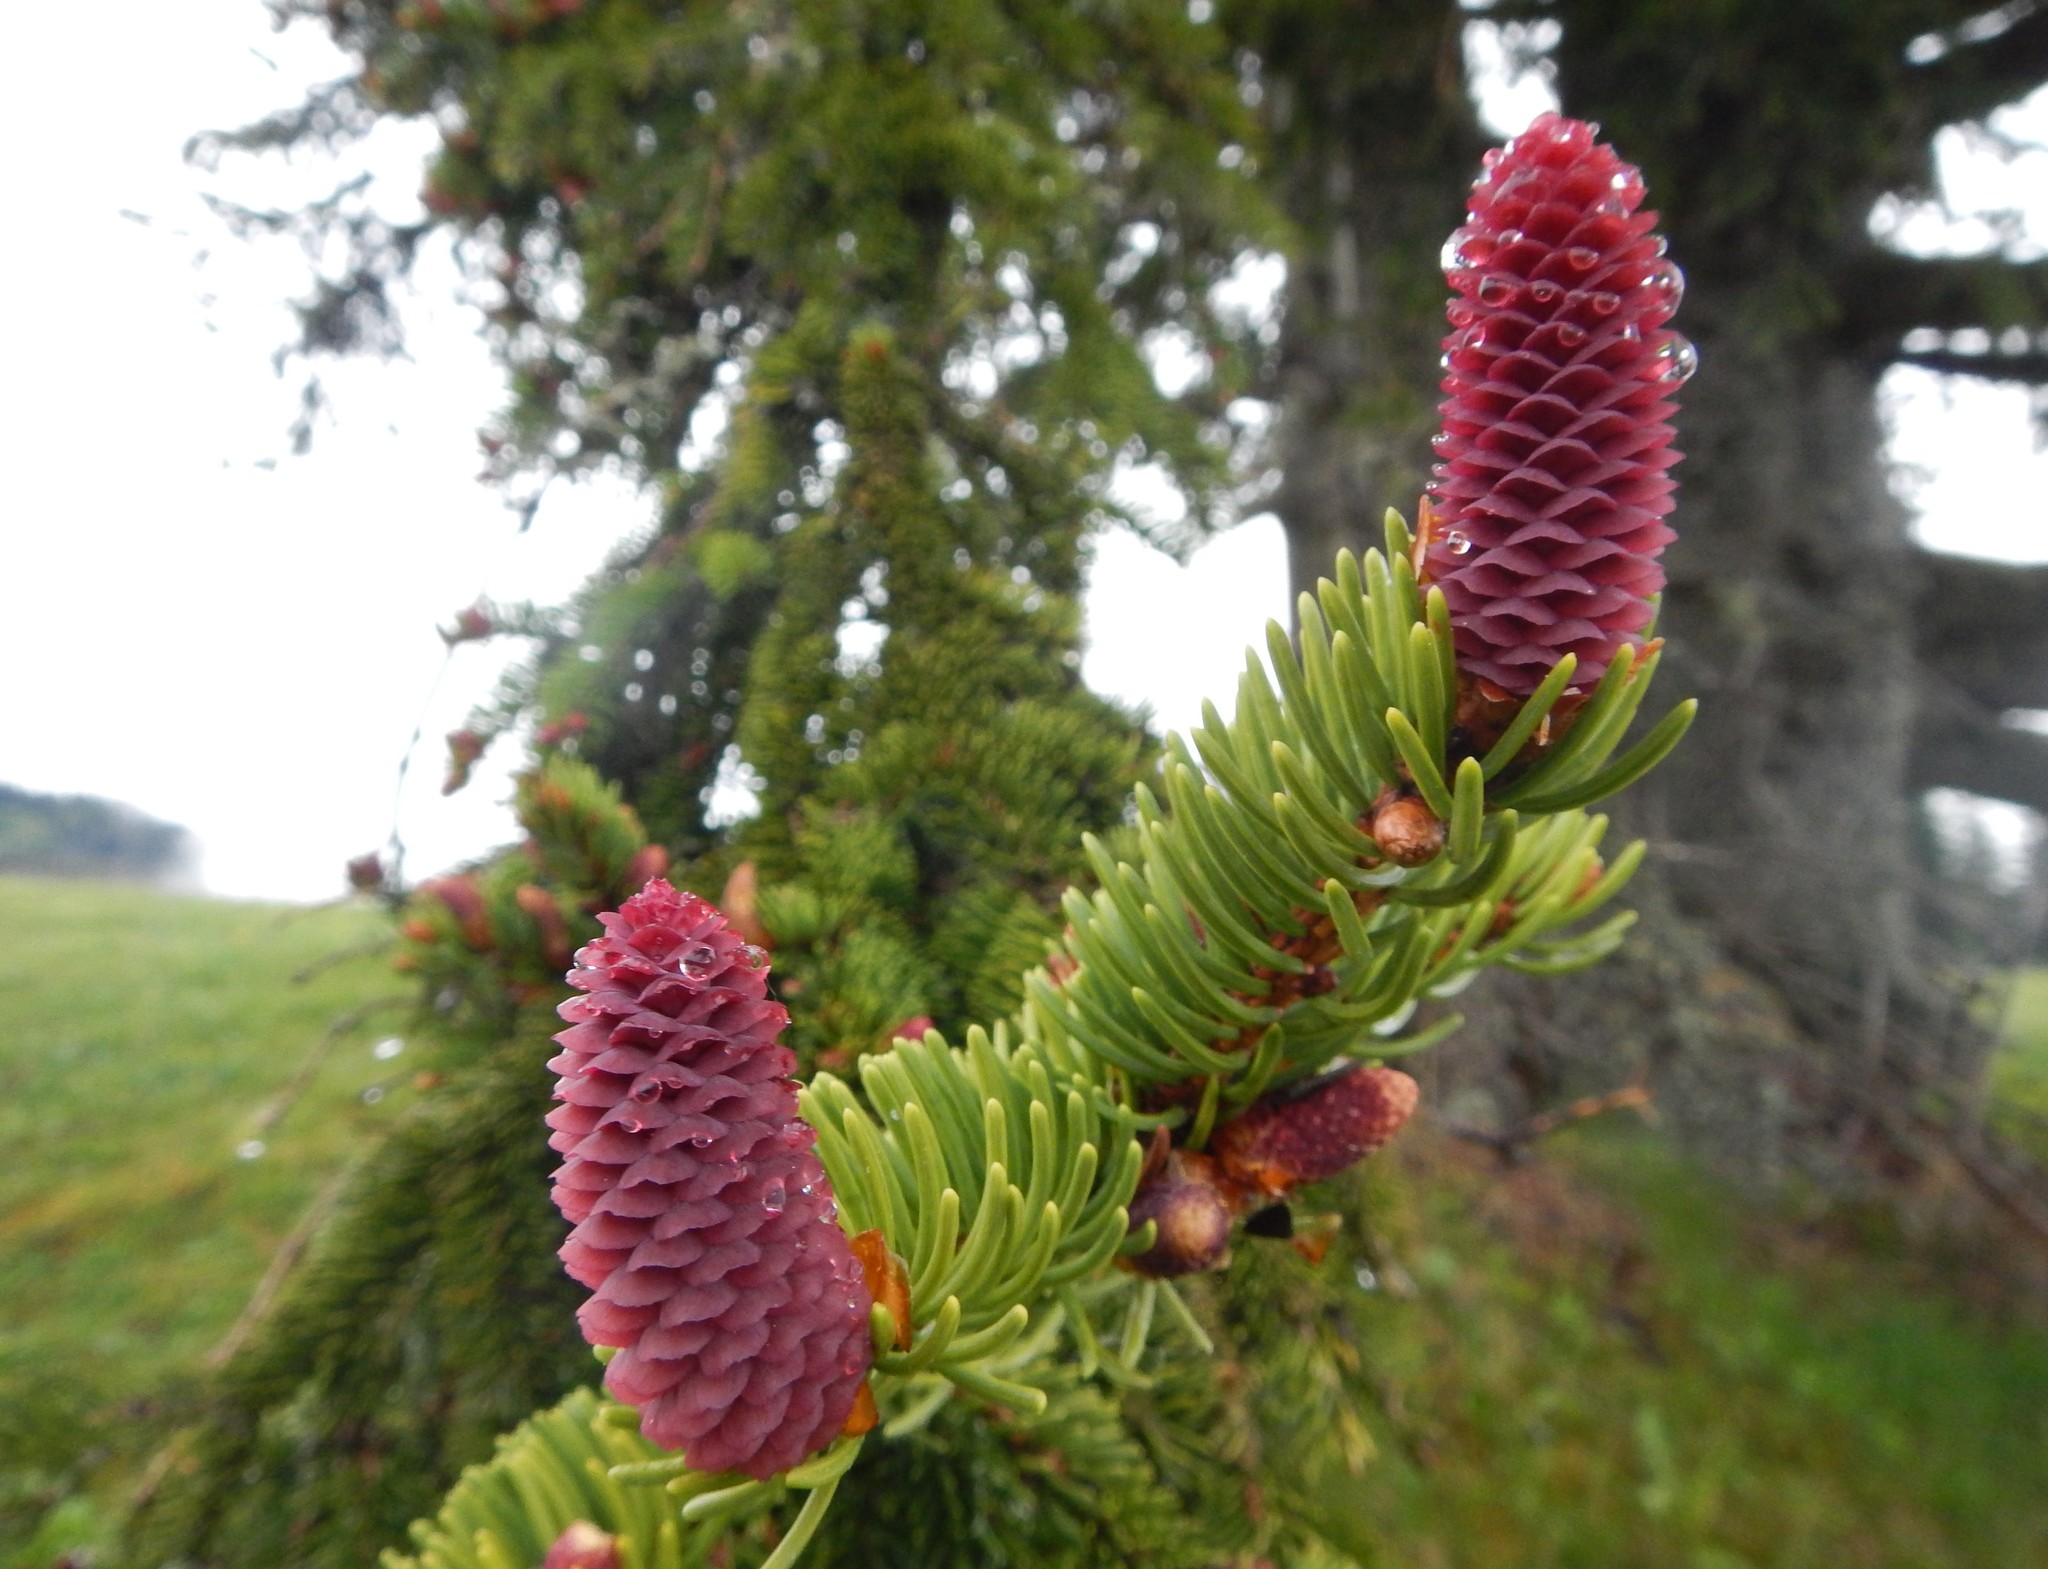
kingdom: Plantae
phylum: Tracheophyta
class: Pinopsida
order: Pinales
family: Pinaceae
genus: Picea
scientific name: Picea abies
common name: Norway spruce
